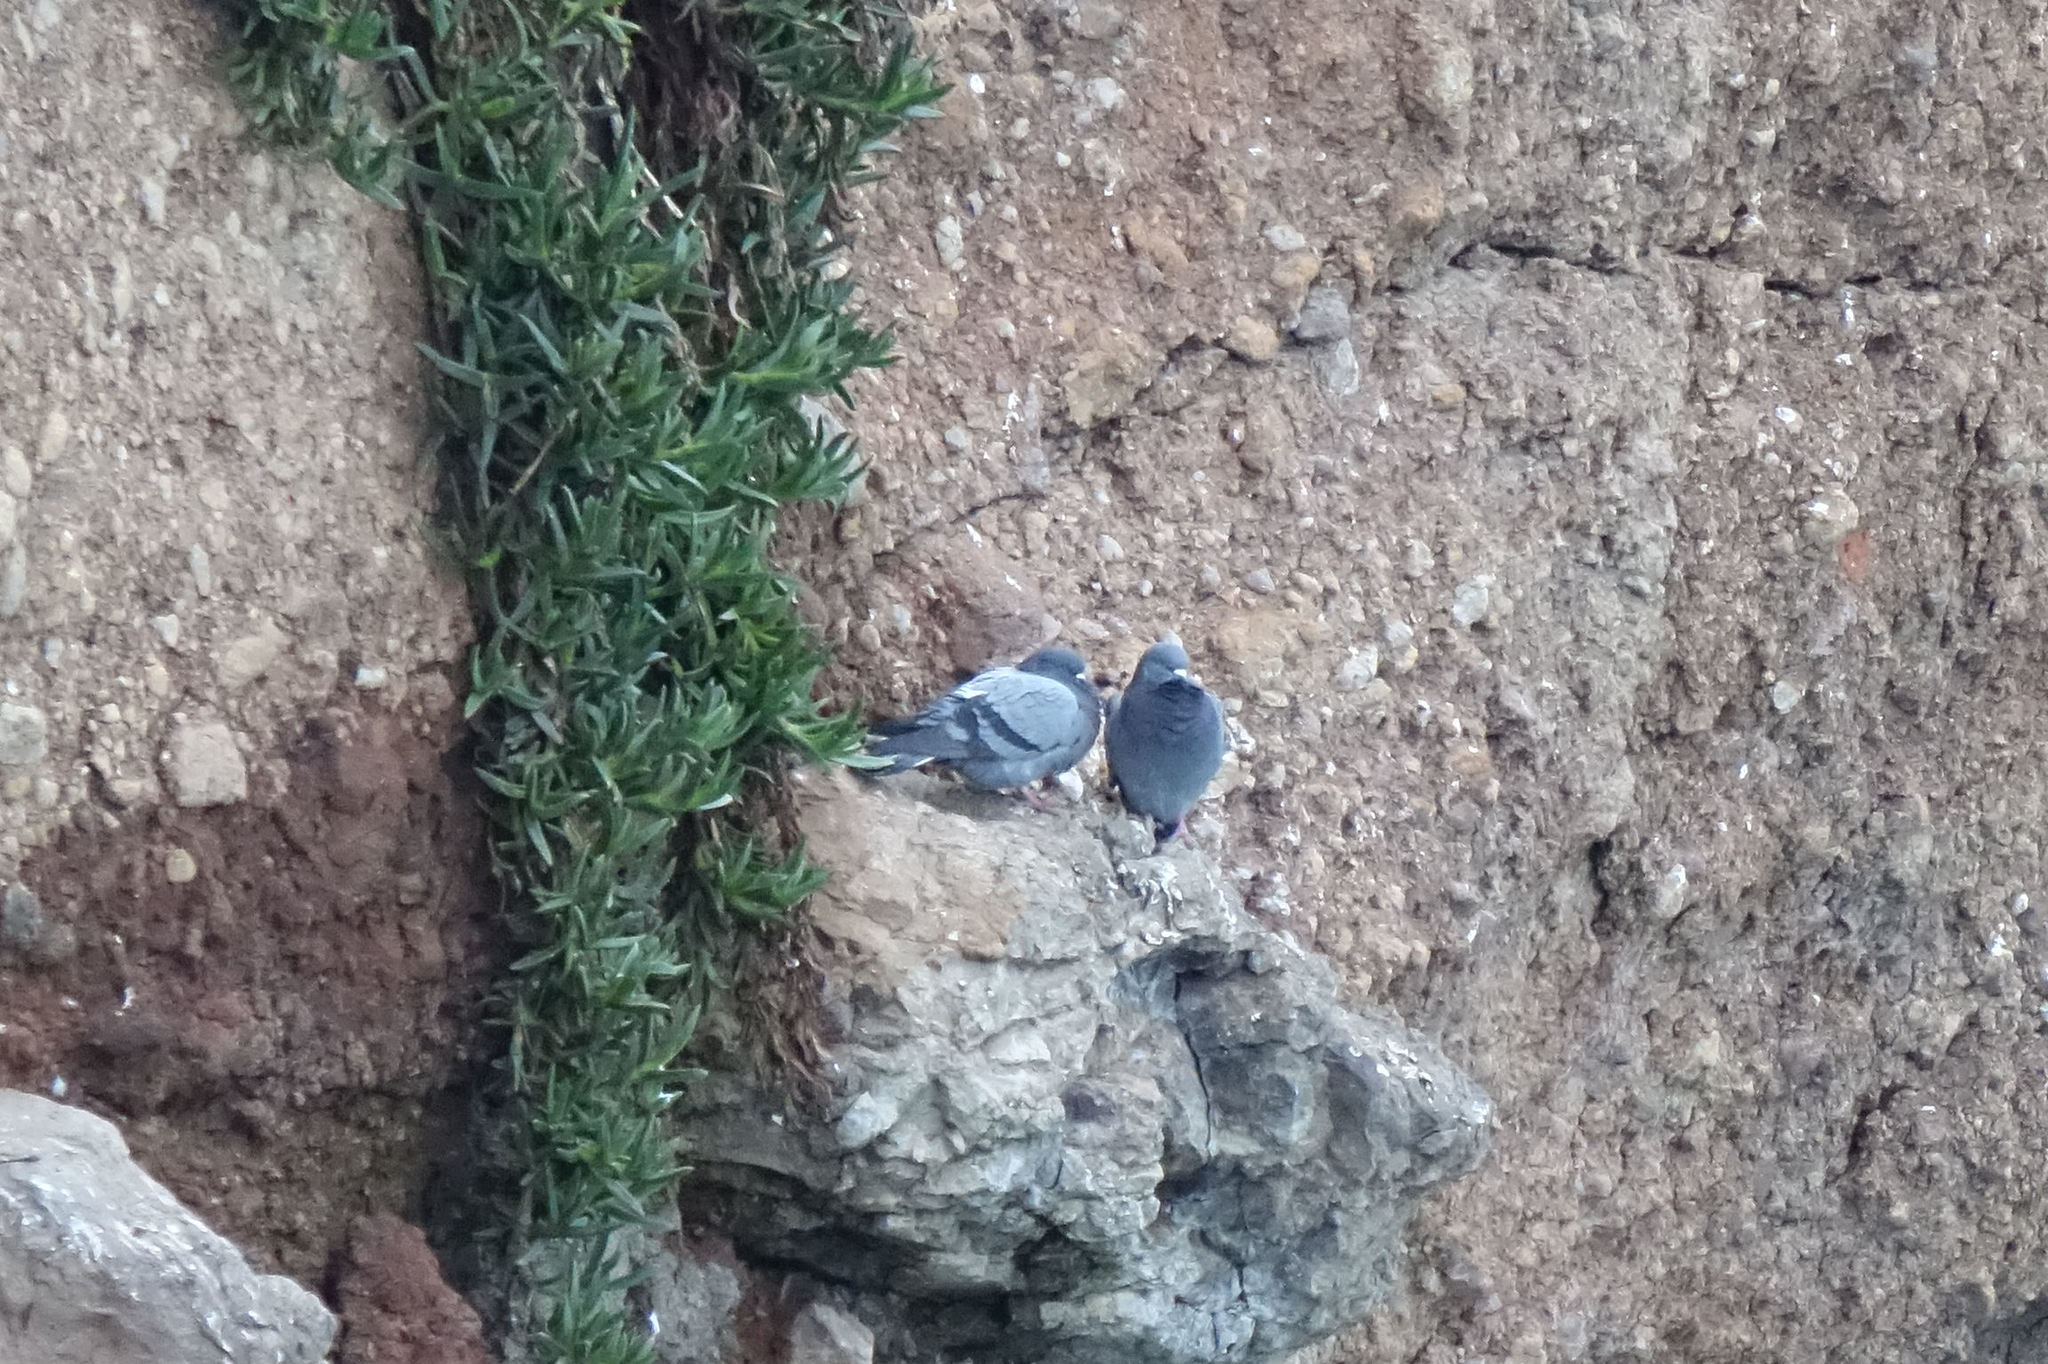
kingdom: Animalia
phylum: Chordata
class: Aves
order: Columbiformes
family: Columbidae
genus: Columba
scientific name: Columba livia
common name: Rock pigeon
